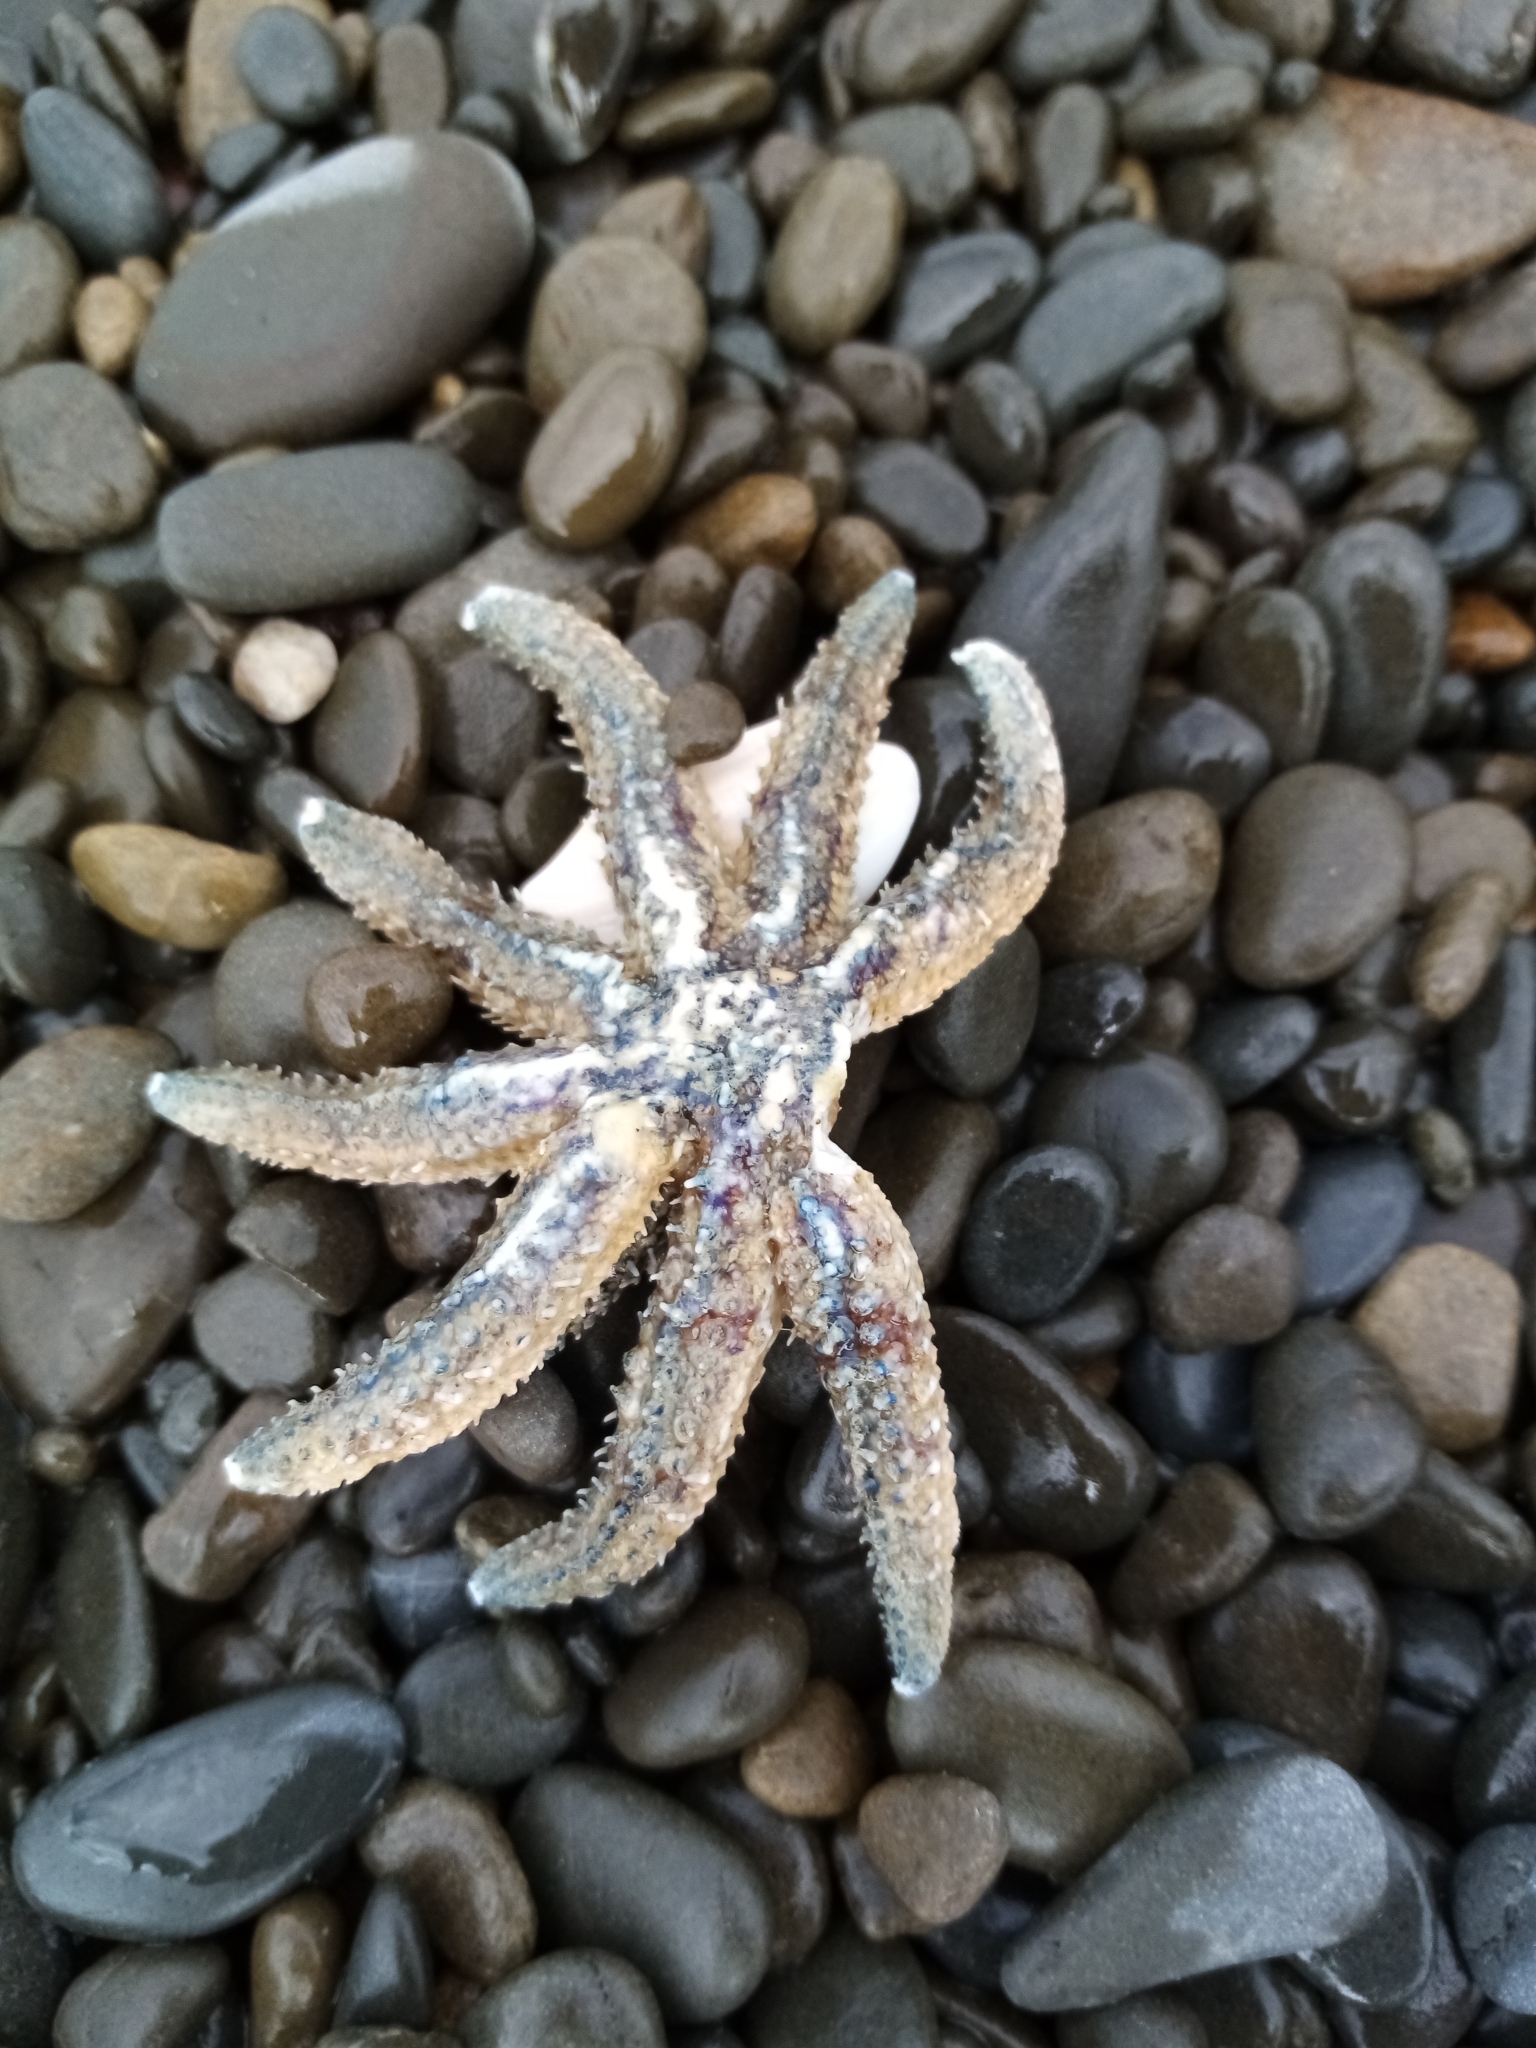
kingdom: Animalia
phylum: Echinodermata
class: Asteroidea
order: Forcipulatida
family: Asteriidae
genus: Coscinasterias
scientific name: Coscinasterias muricata
